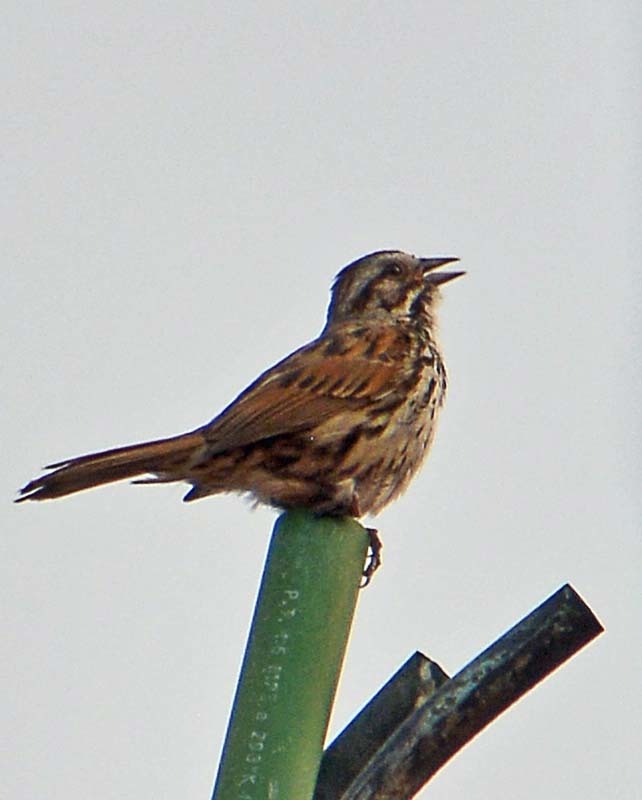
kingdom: Animalia
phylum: Chordata
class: Aves
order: Passeriformes
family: Passerellidae
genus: Melospiza
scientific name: Melospiza melodia
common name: Song sparrow
